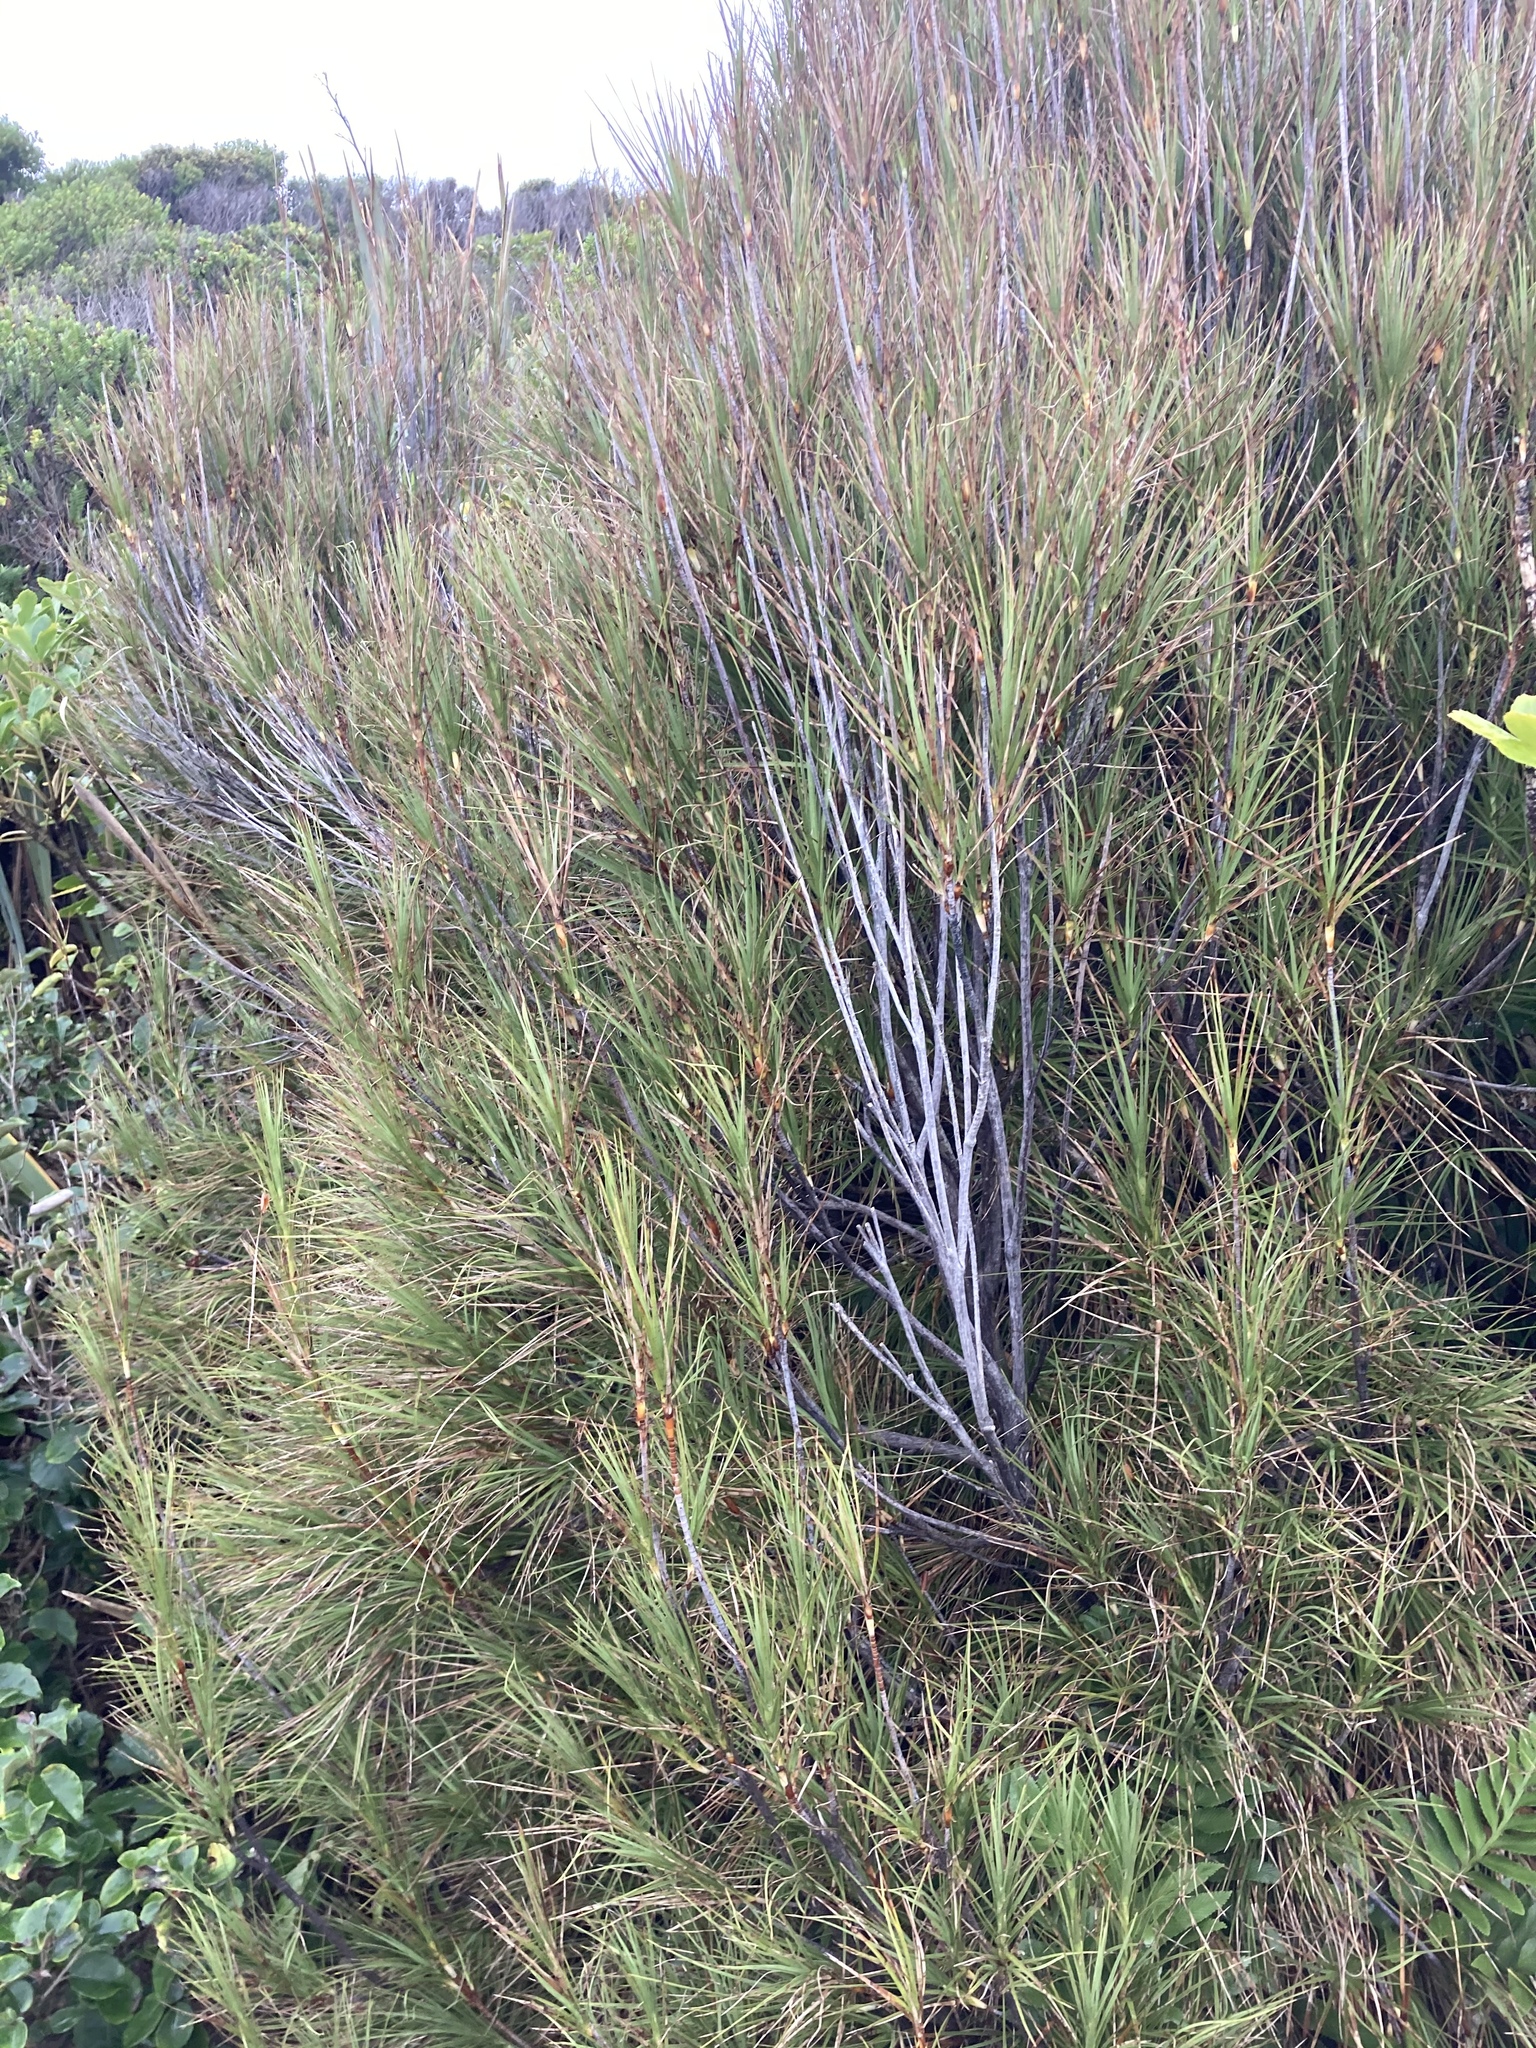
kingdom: Plantae
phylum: Tracheophyta
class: Magnoliopsida
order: Ericales
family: Ericaceae
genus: Dracophyllum
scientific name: Dracophyllum longifolium
